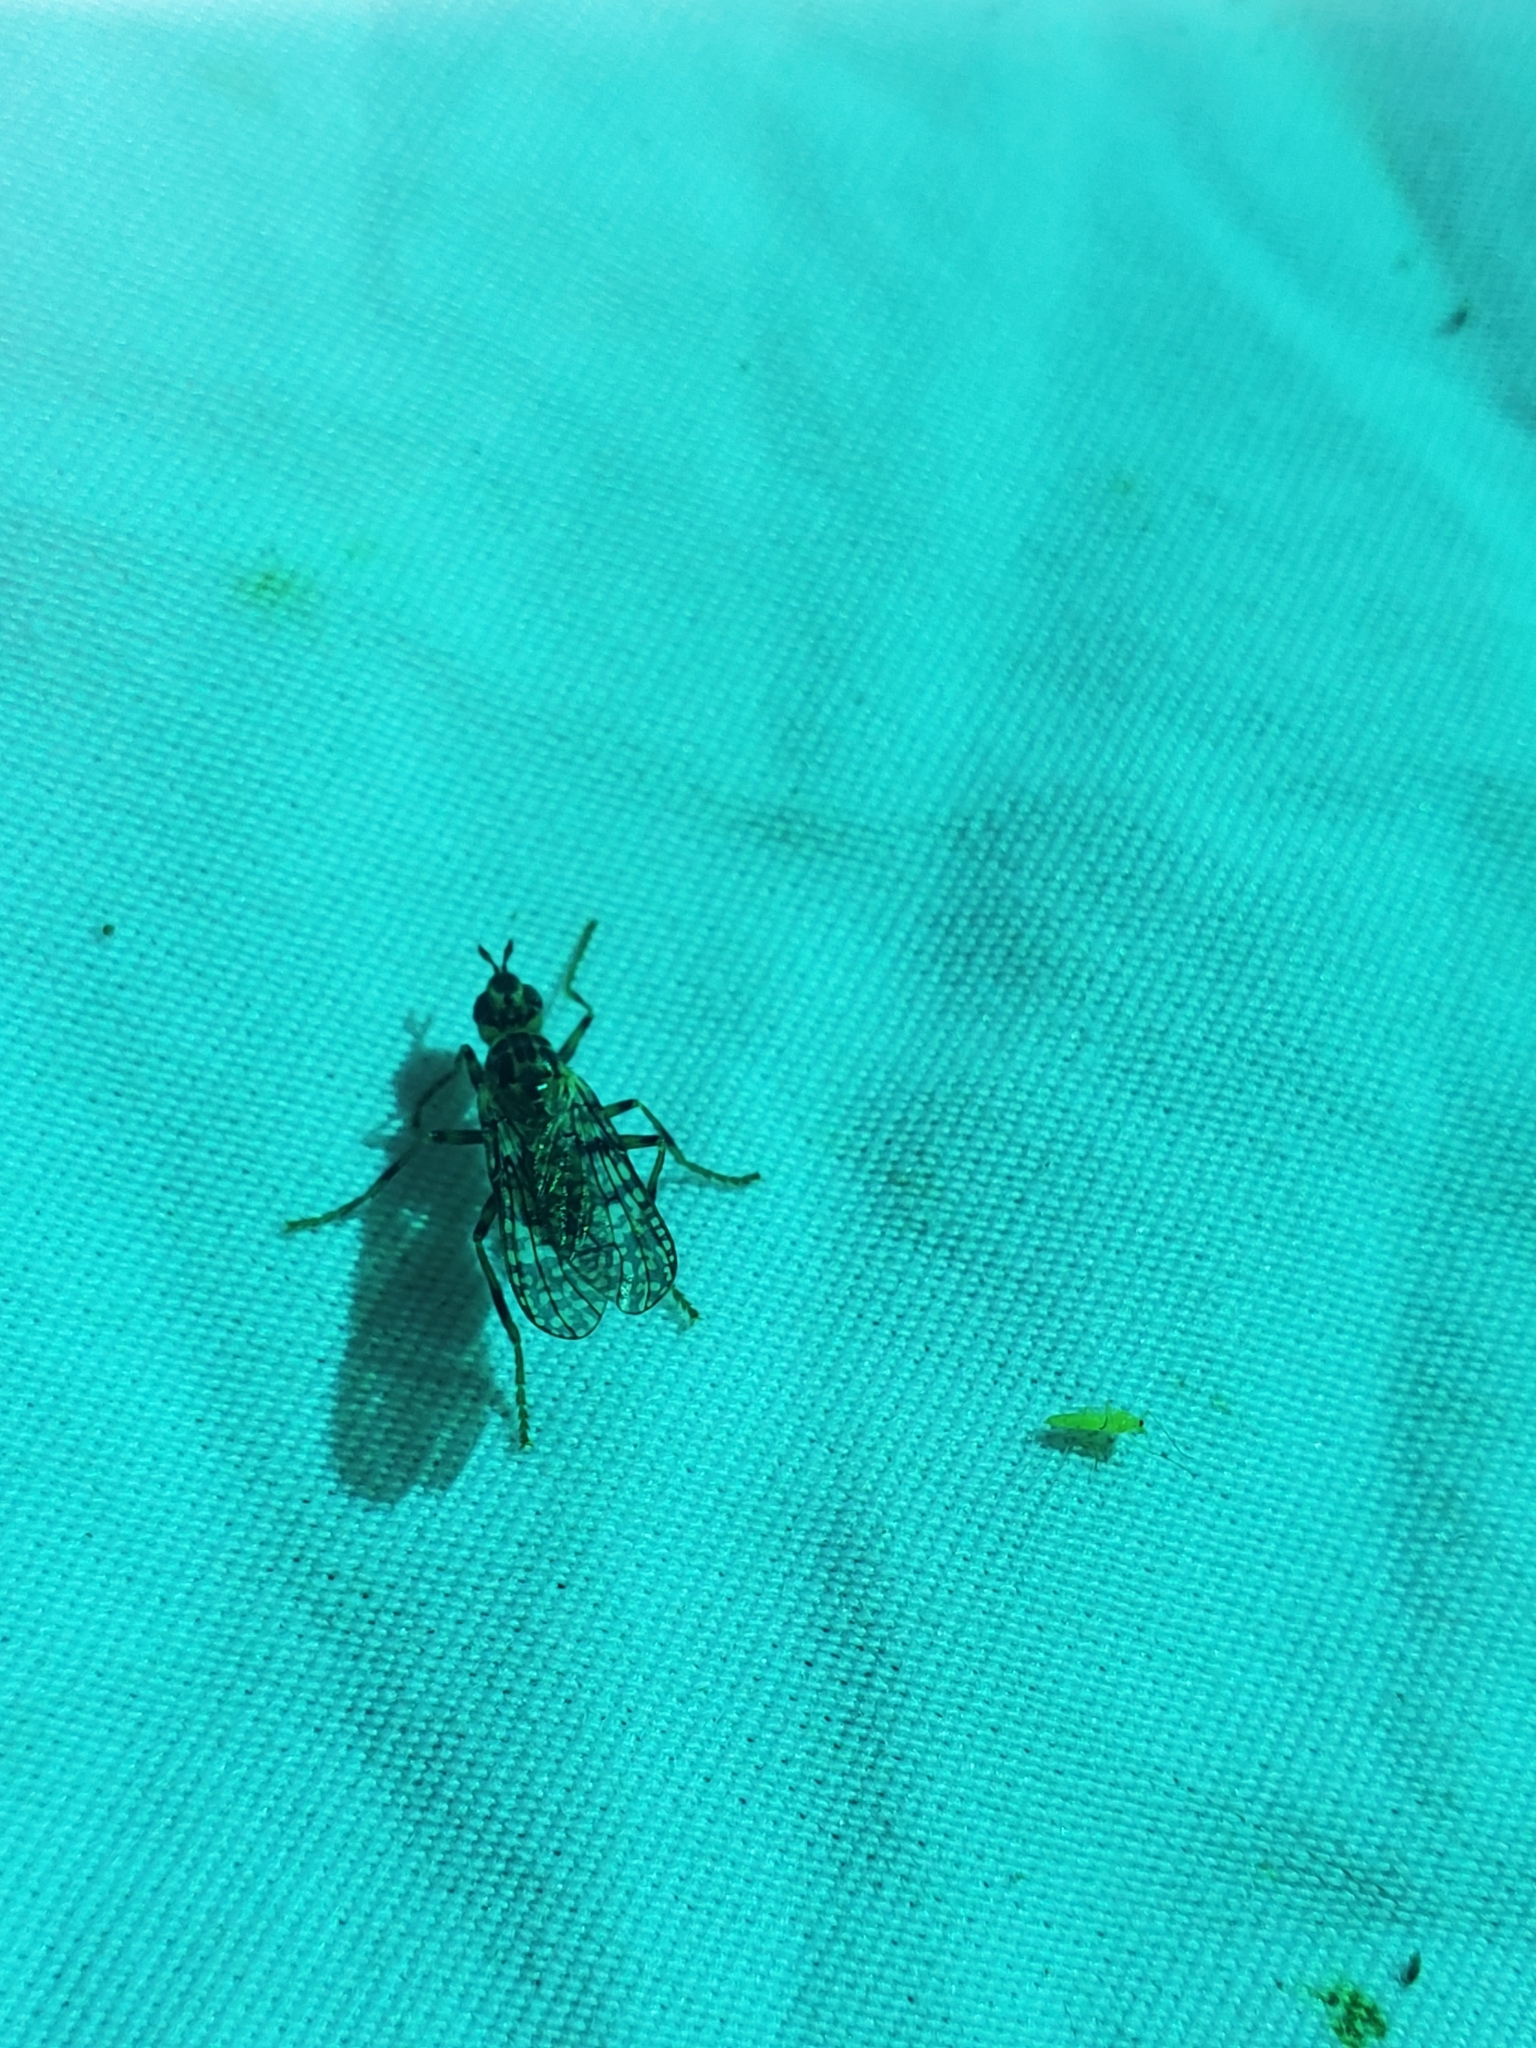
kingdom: Animalia
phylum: Arthropoda
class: Insecta
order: Diptera
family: Pyrgotidae
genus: Boreothrinax
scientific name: Boreothrinax
